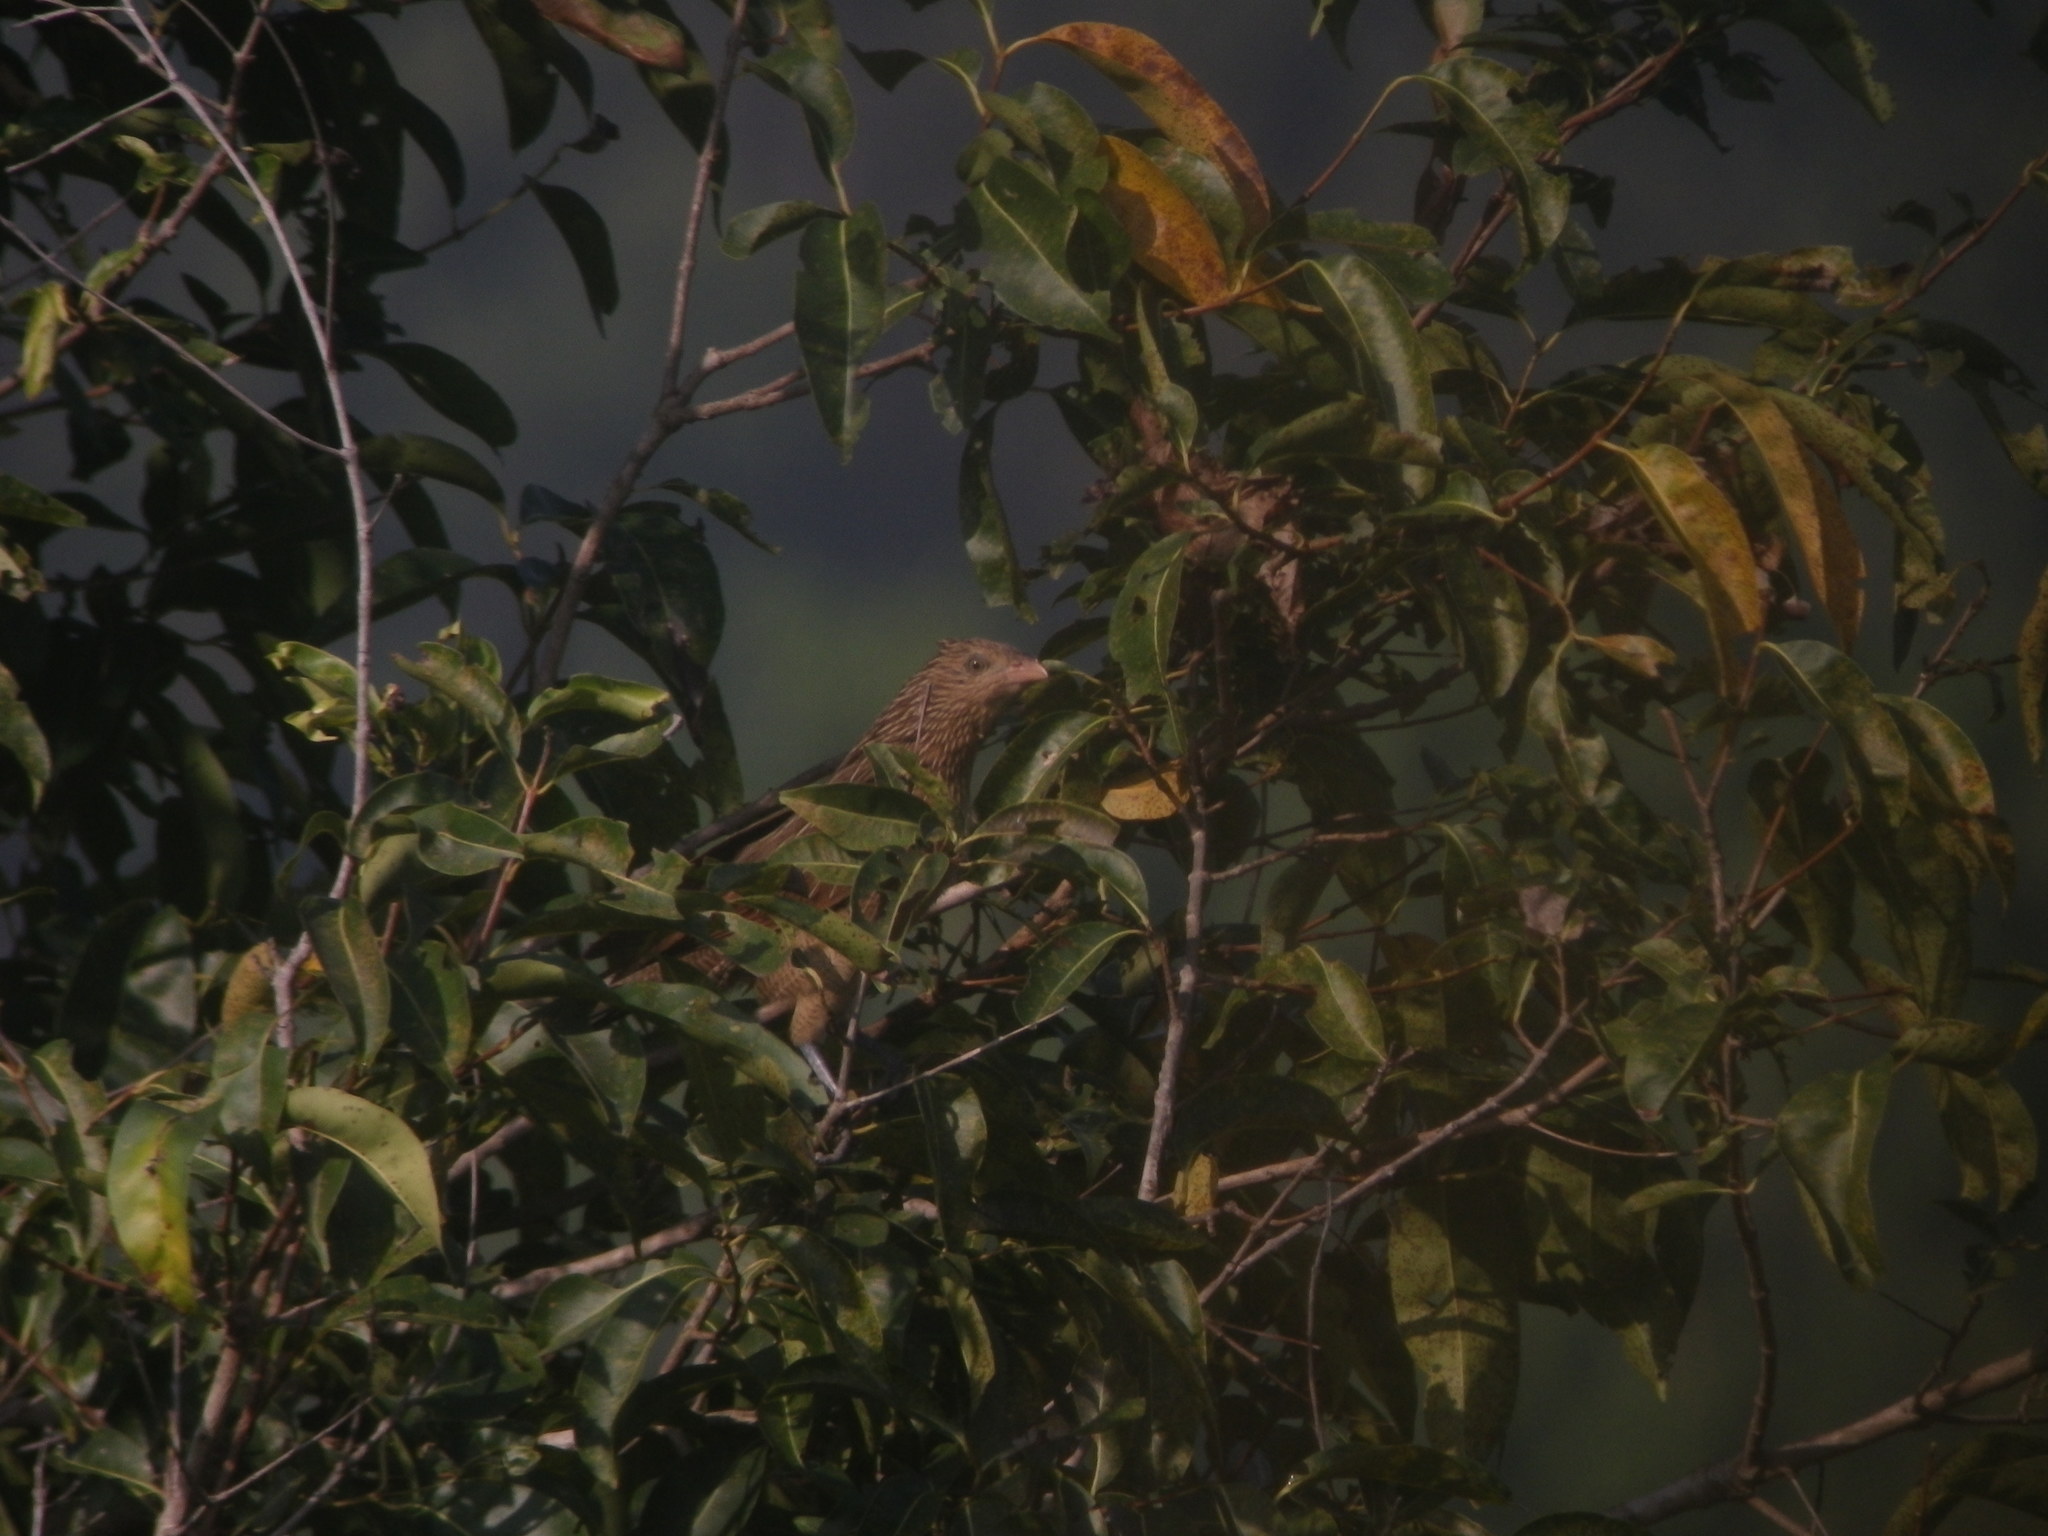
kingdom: Animalia
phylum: Chordata
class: Aves
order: Cuculiformes
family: Cuculidae
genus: Centropus
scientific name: Centropus bengalensis
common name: Lesser coucal
